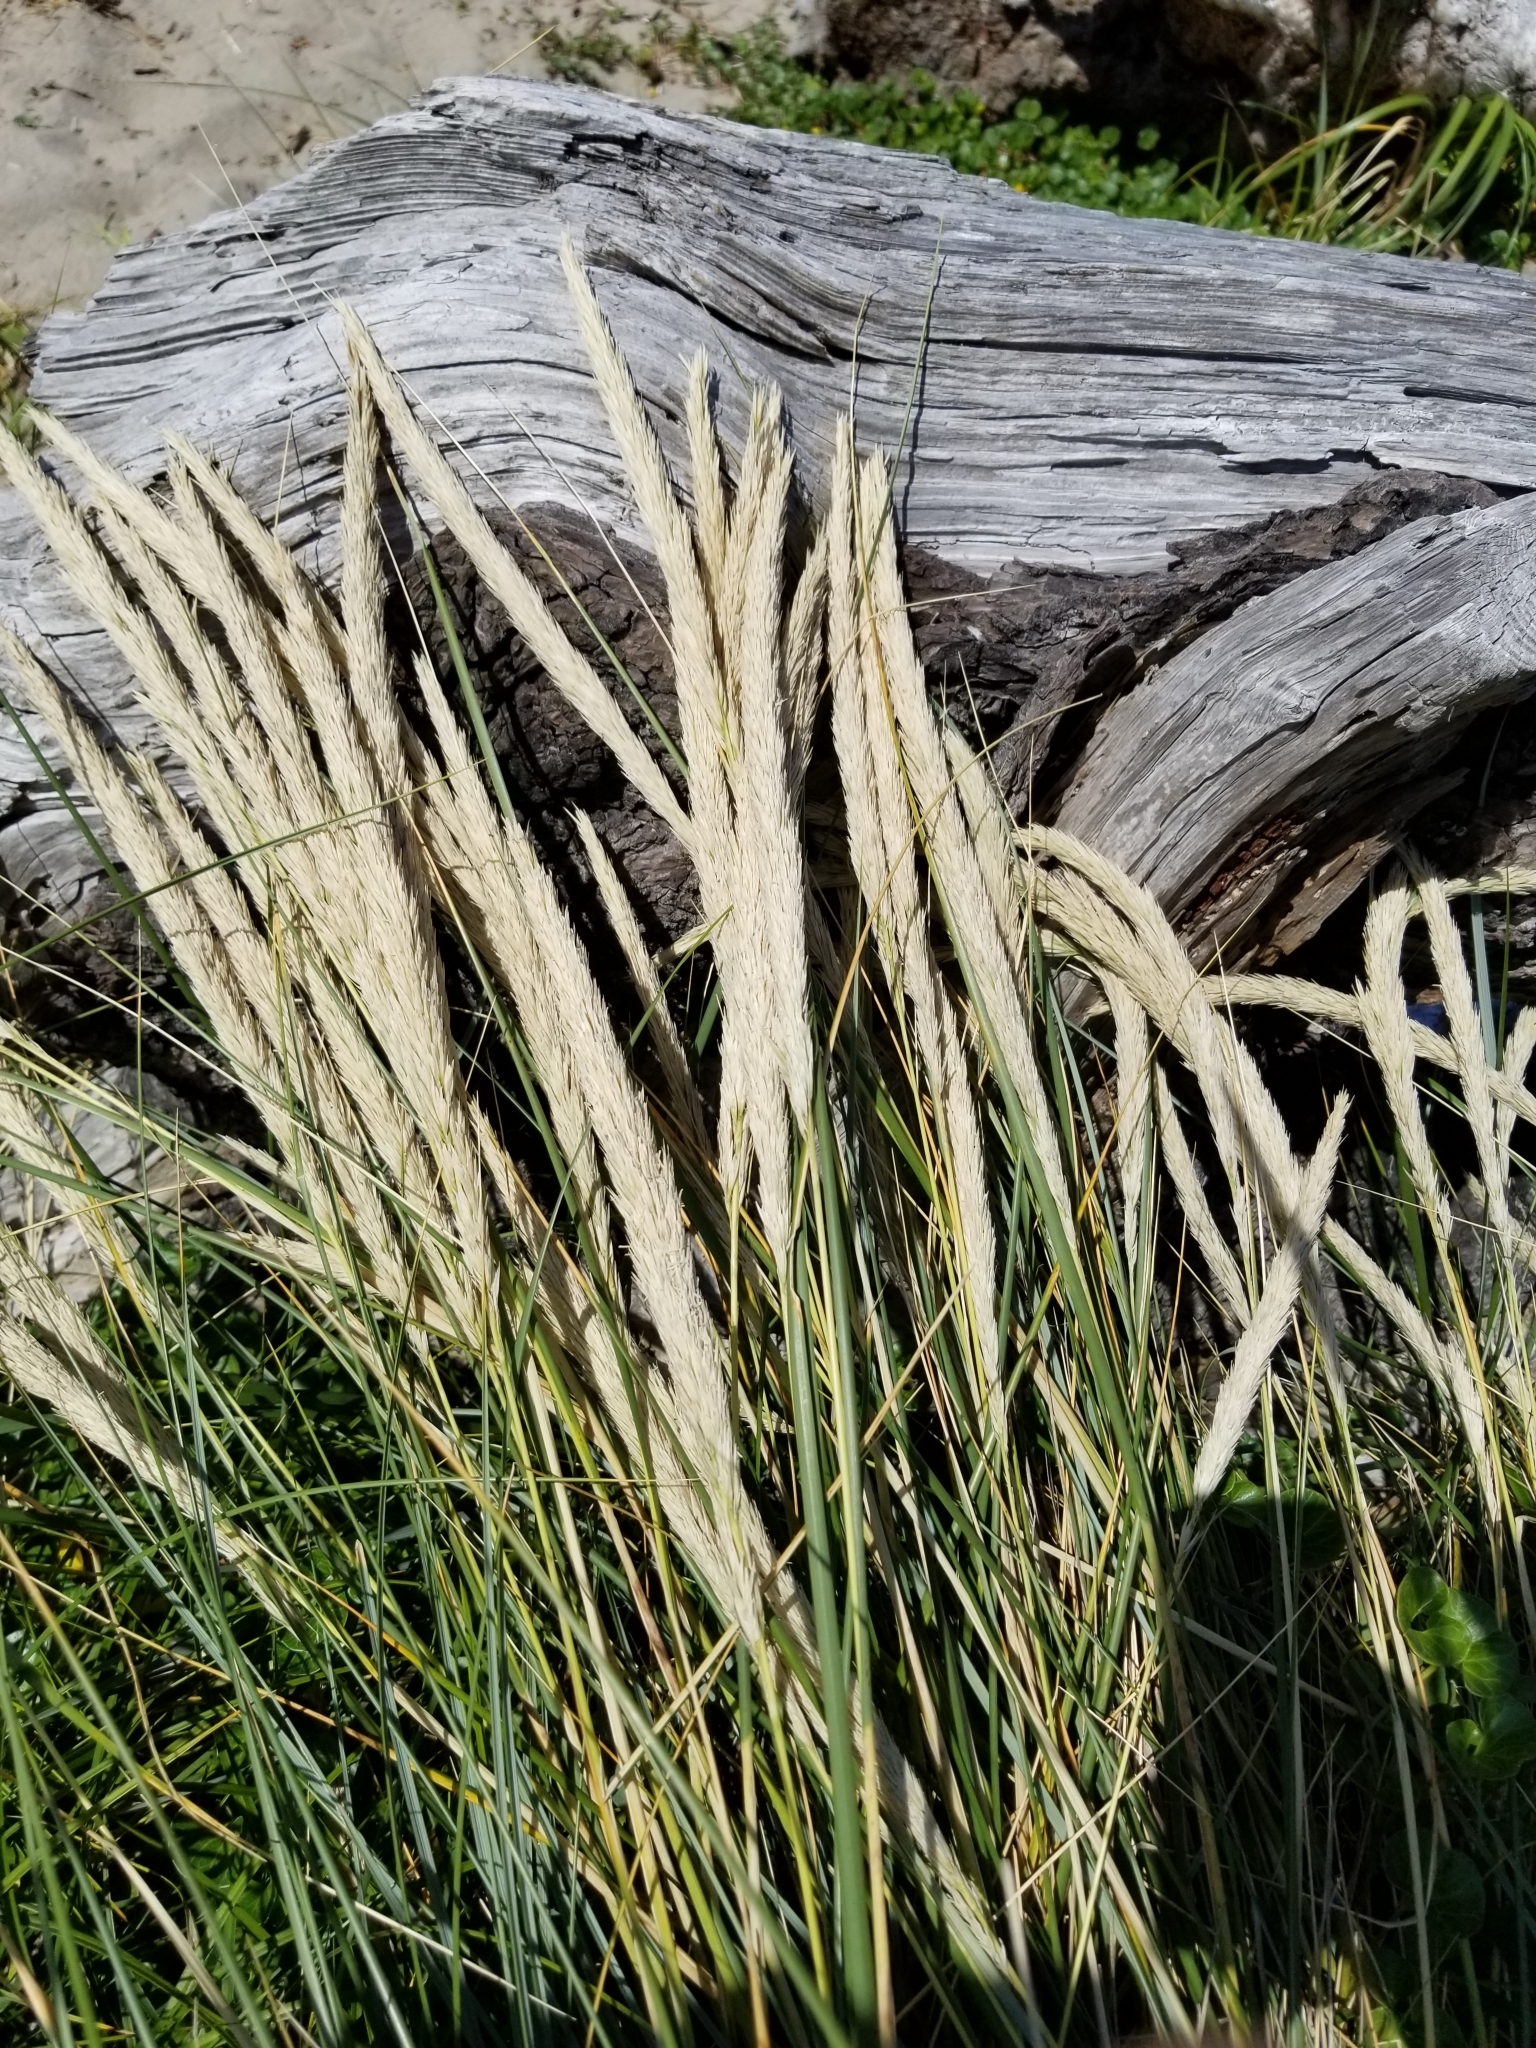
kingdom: Plantae
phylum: Tracheophyta
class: Liliopsida
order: Poales
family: Poaceae
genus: Calamagrostis
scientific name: Calamagrostis arenaria
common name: European beachgrass
